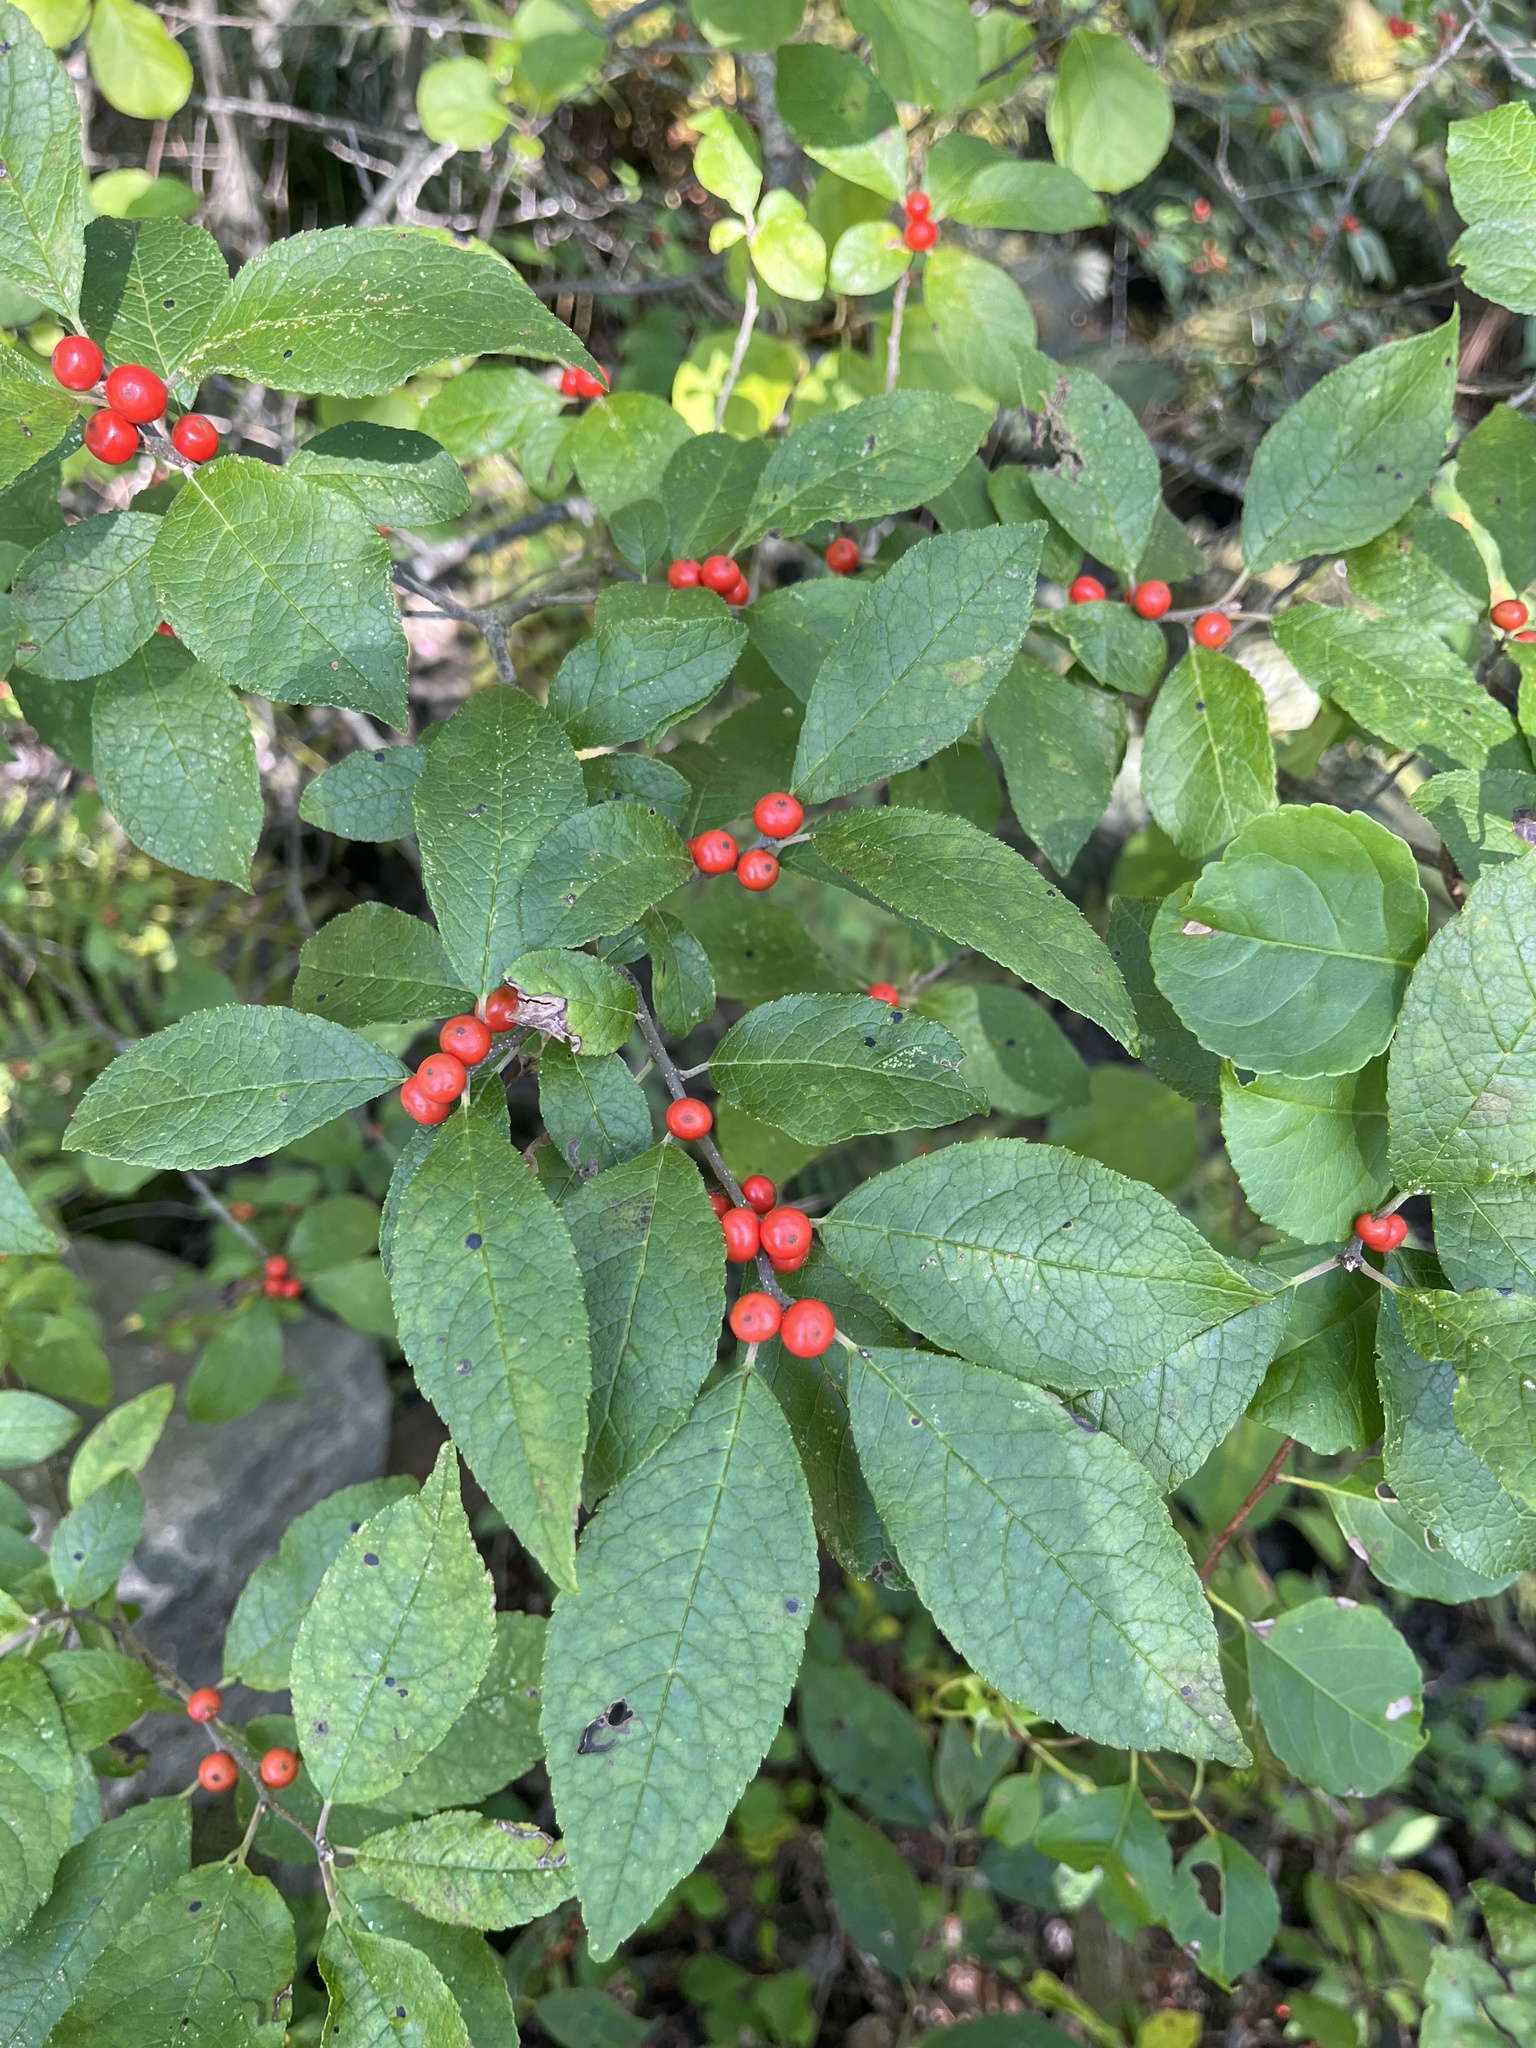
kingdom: Plantae
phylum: Tracheophyta
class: Magnoliopsida
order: Aquifoliales
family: Aquifoliaceae
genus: Ilex
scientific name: Ilex verticillata
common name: Virginia winterberry
